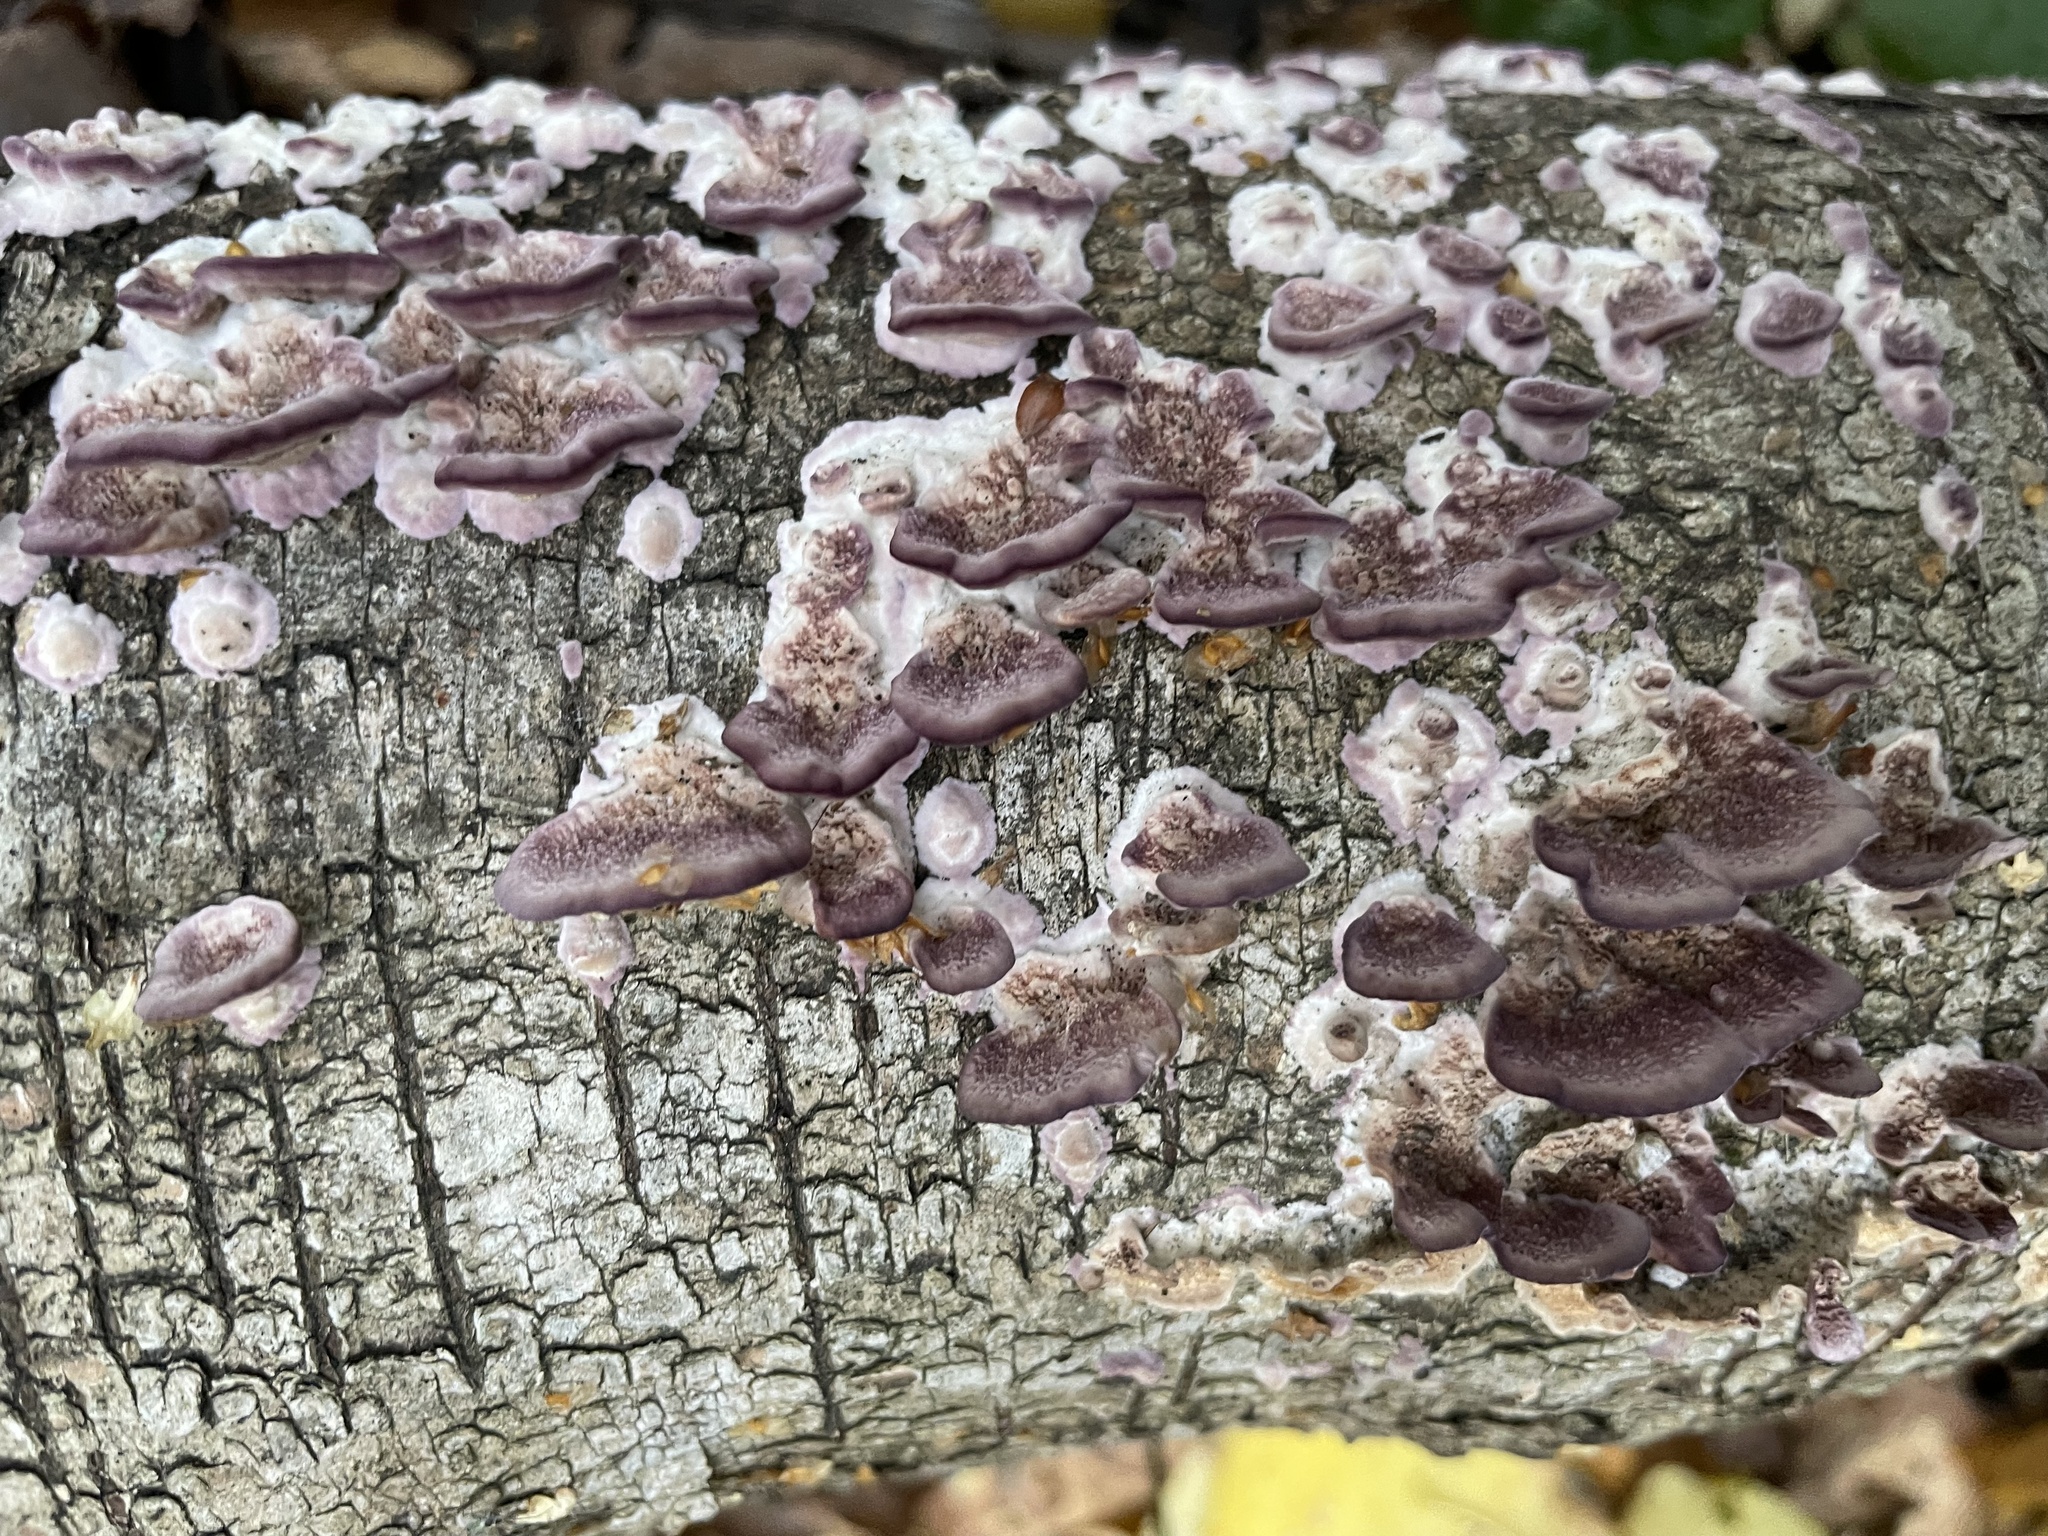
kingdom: Fungi
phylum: Basidiomycota
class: Agaricomycetes
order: Hymenochaetales
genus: Trichaptum
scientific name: Trichaptum biforme
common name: Violet-toothed polypore
